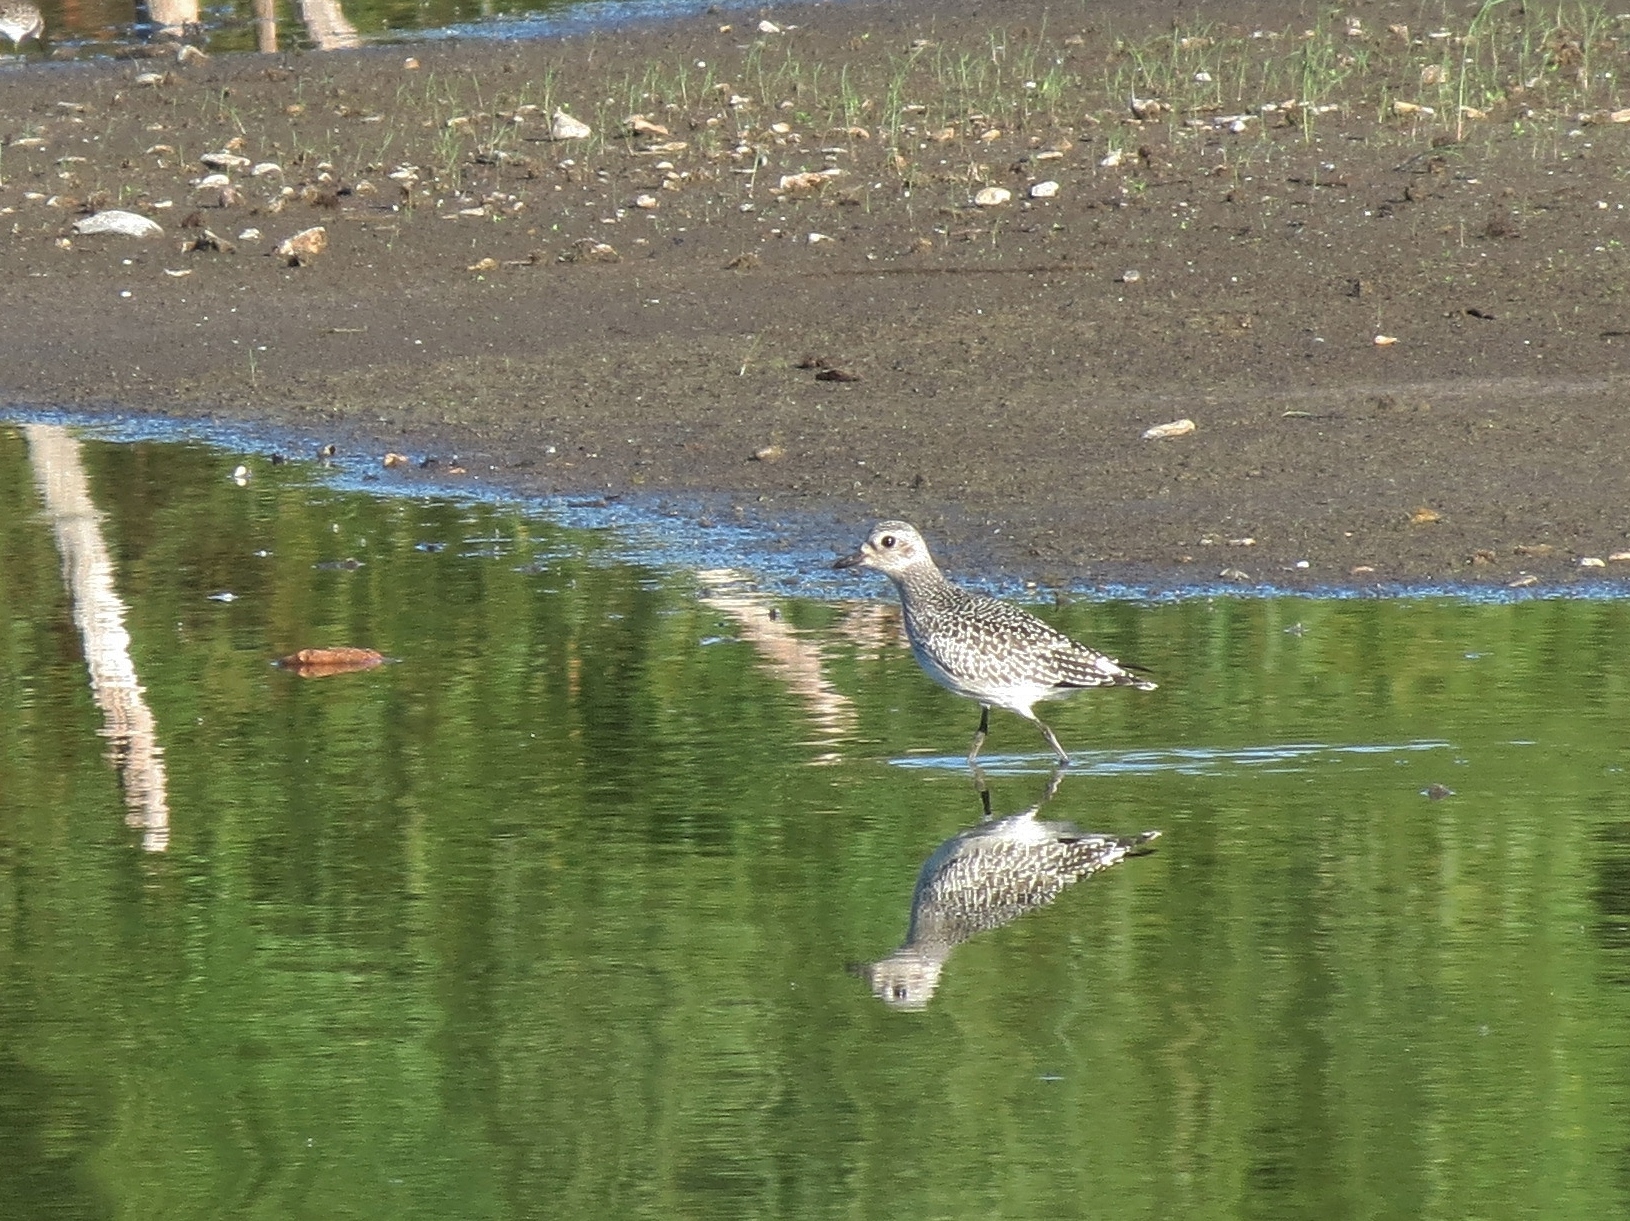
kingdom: Animalia
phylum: Chordata
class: Aves
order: Charadriiformes
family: Charadriidae
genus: Pluvialis
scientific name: Pluvialis squatarola
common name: Grey plover
